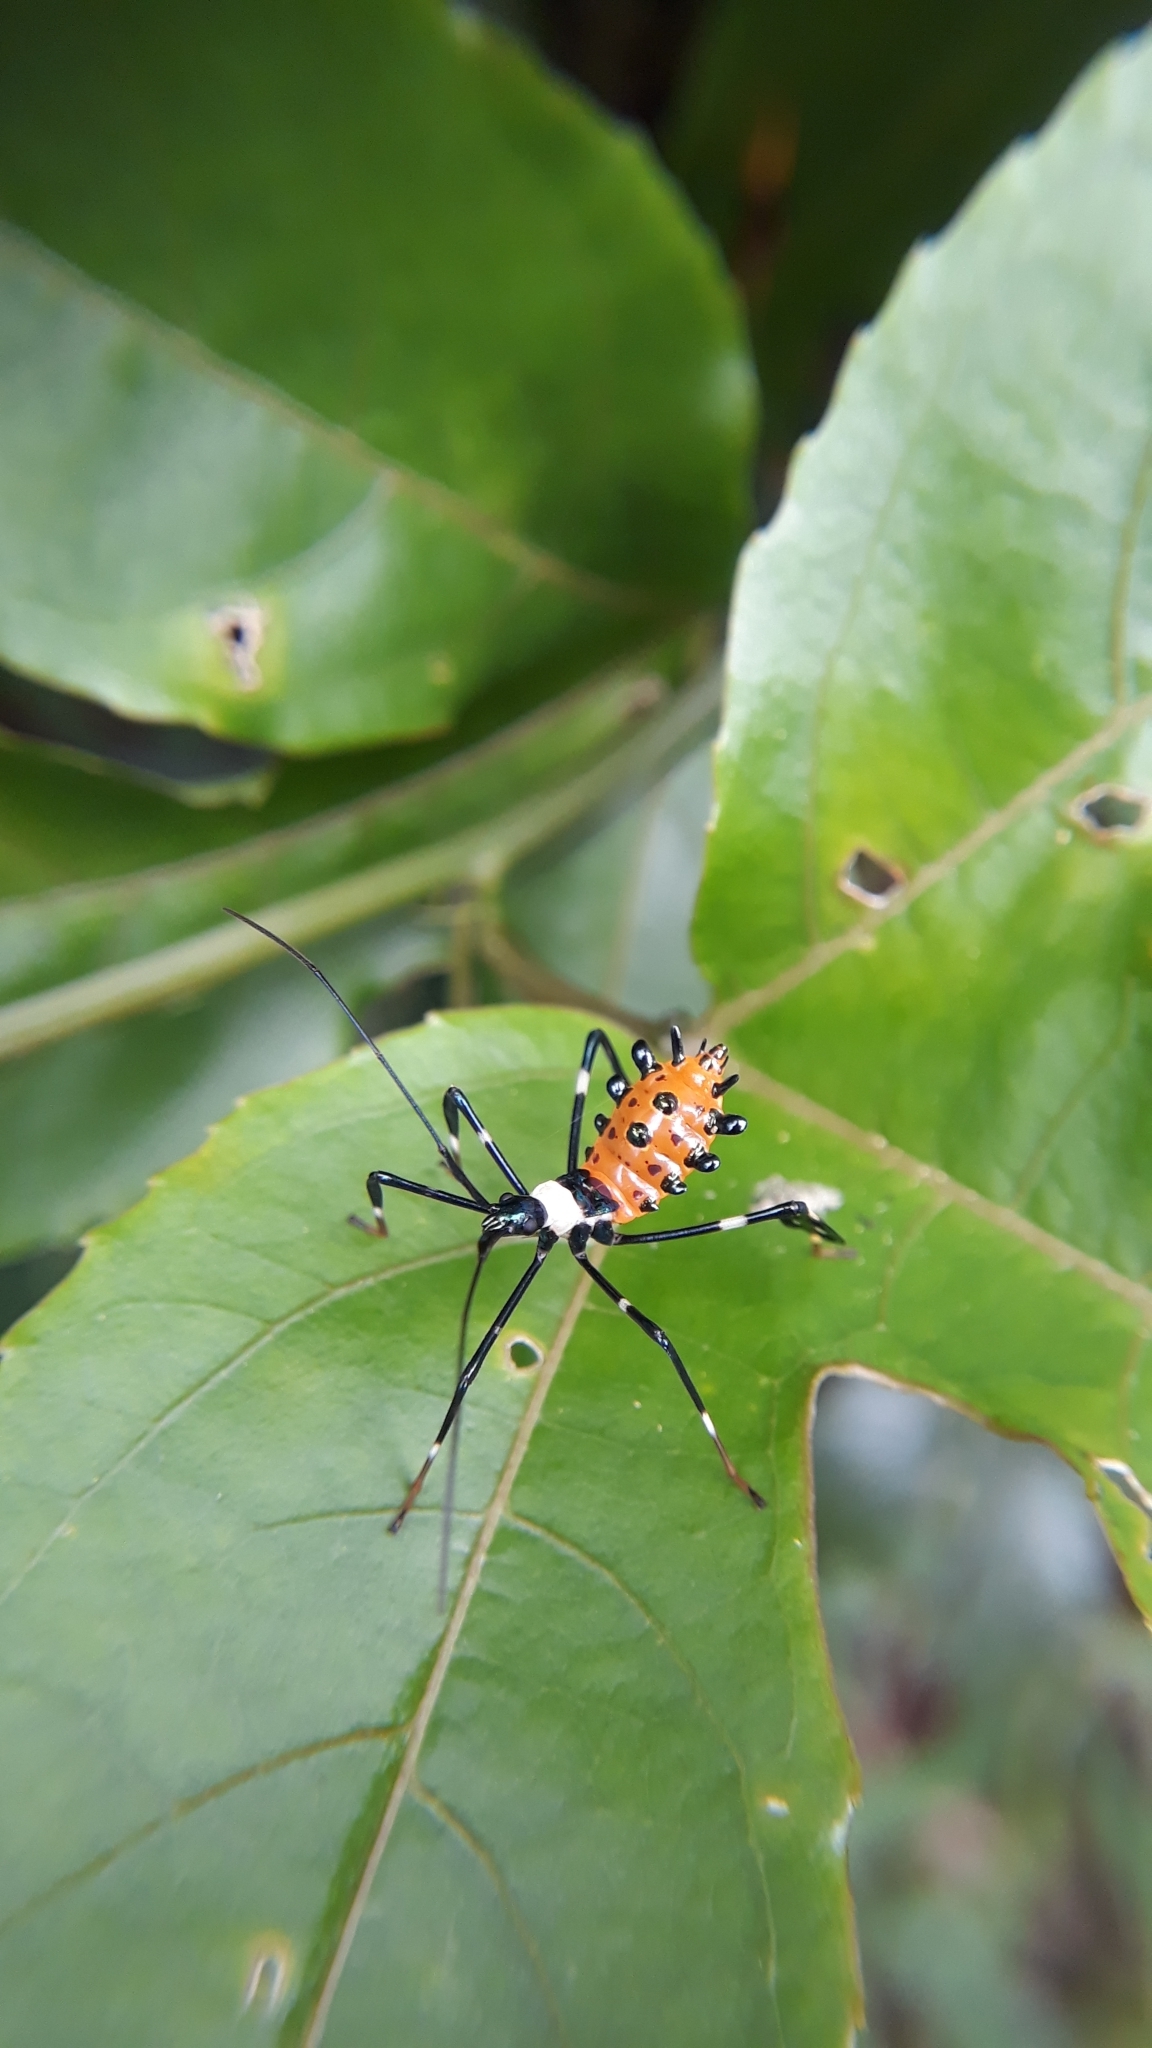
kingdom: Animalia
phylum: Arthropoda
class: Insecta
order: Hemiptera
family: Coreidae
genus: Diactor
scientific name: Diactor bilineatus
